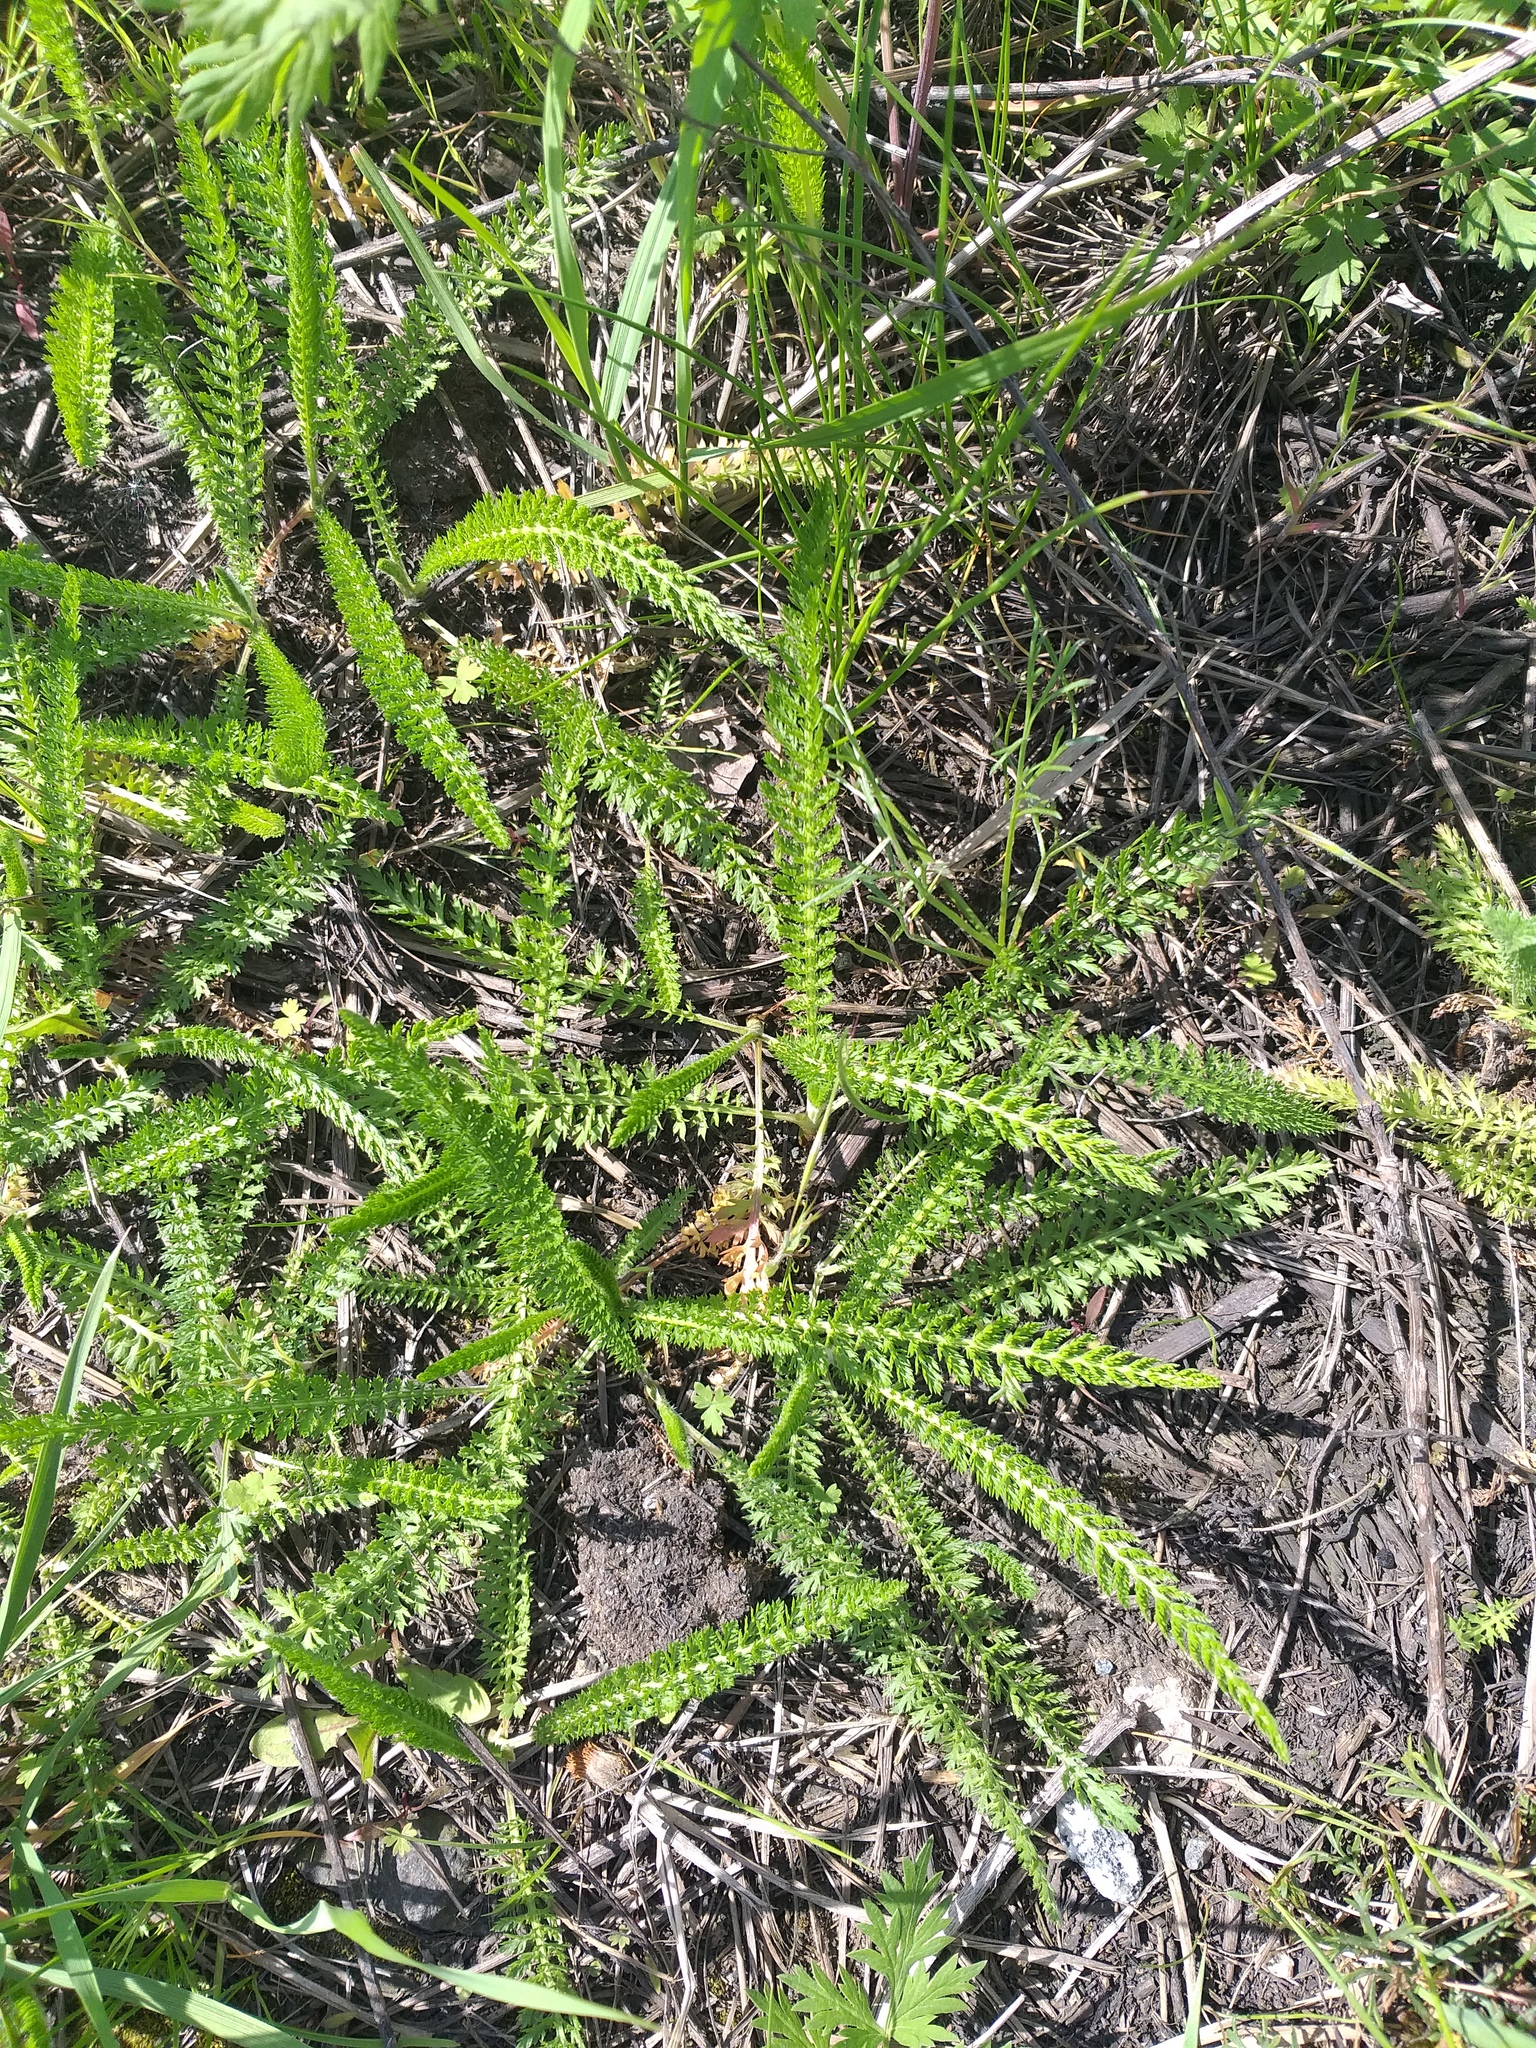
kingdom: Plantae
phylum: Tracheophyta
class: Magnoliopsida
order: Asterales
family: Asteraceae
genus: Achillea
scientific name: Achillea millefolium
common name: Yarrow
